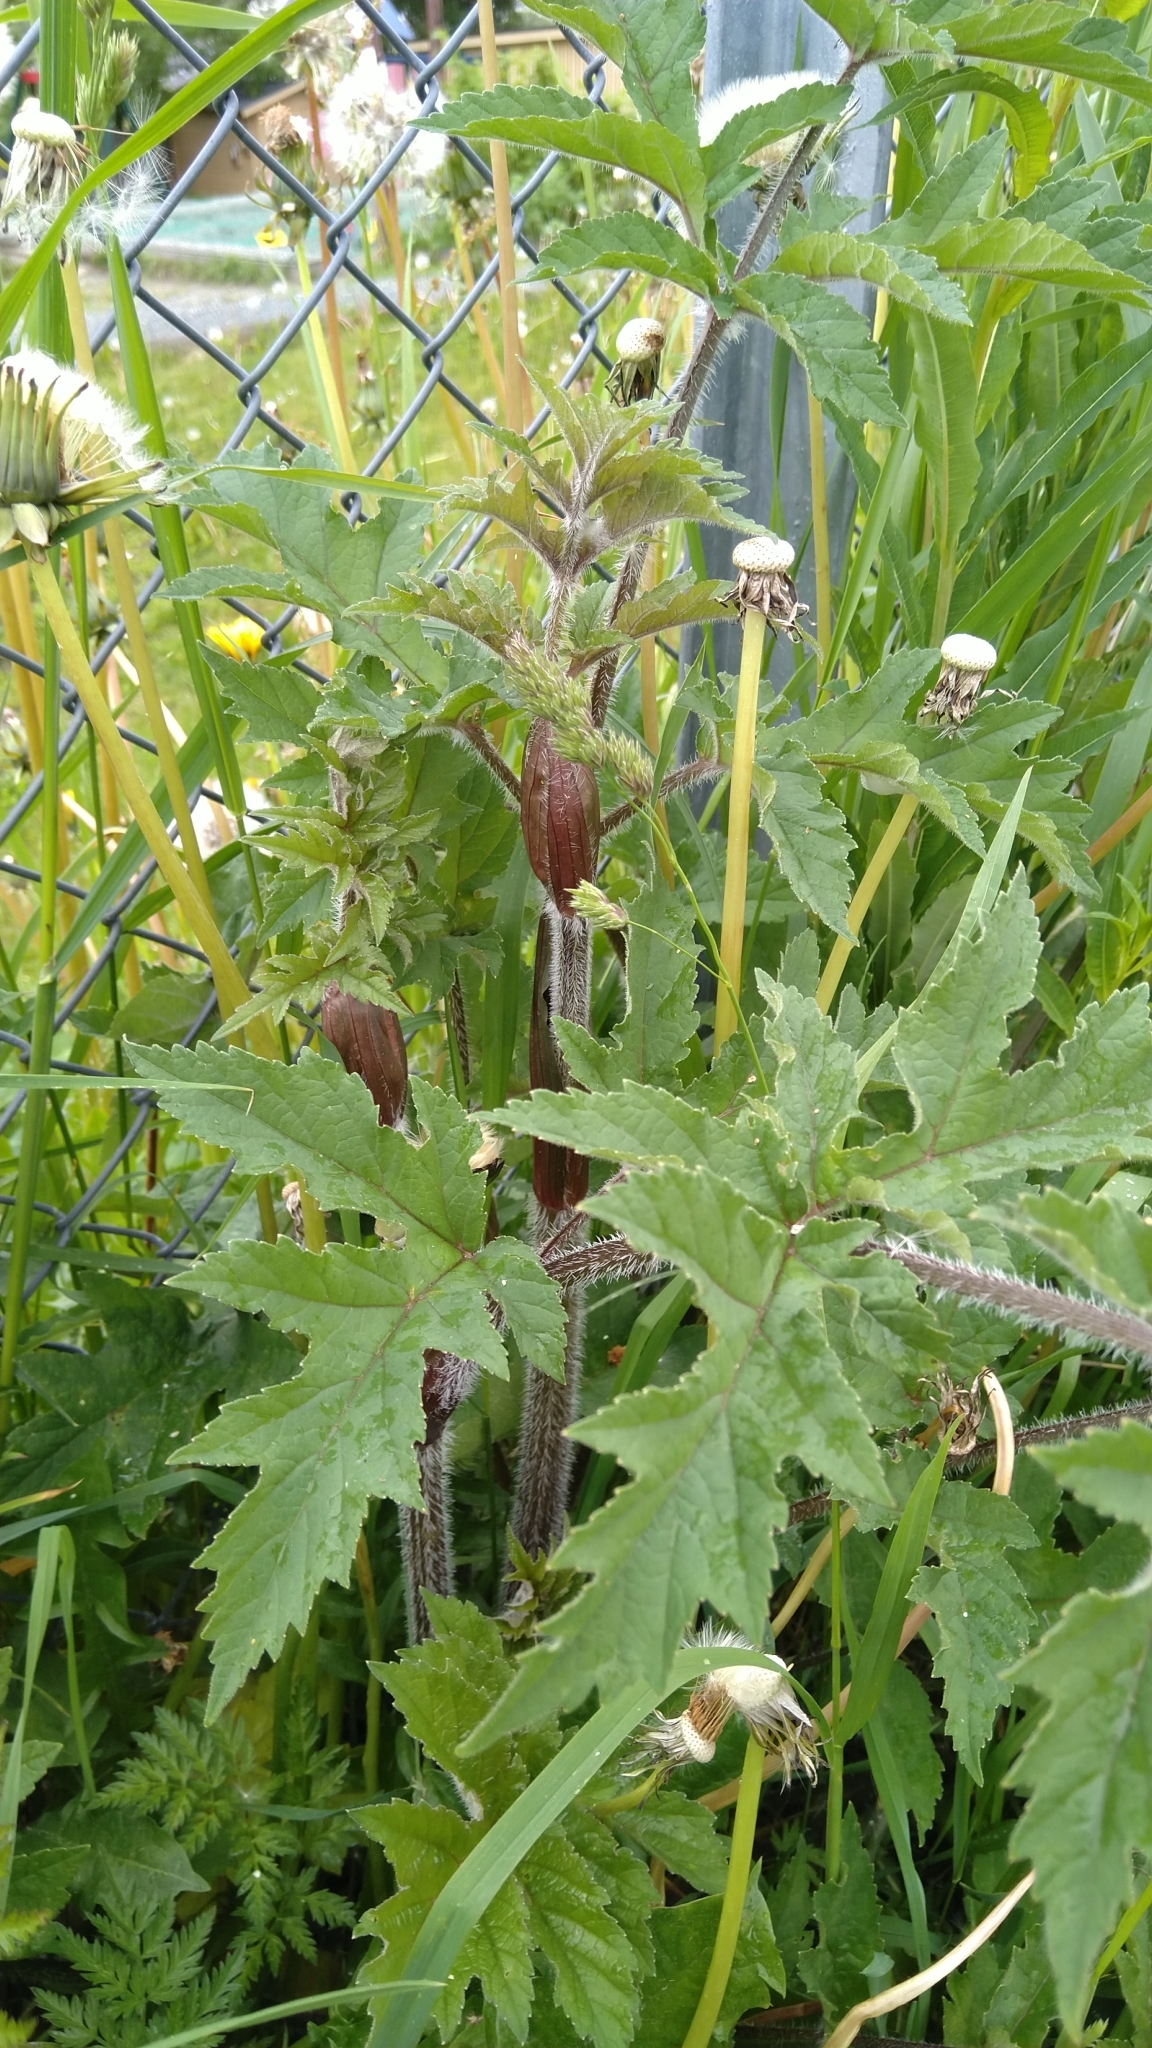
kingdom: Plantae
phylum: Tracheophyta
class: Magnoliopsida
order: Apiales
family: Apiaceae
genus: Heracleum
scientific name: Heracleum sphondylium
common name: Hogweed
